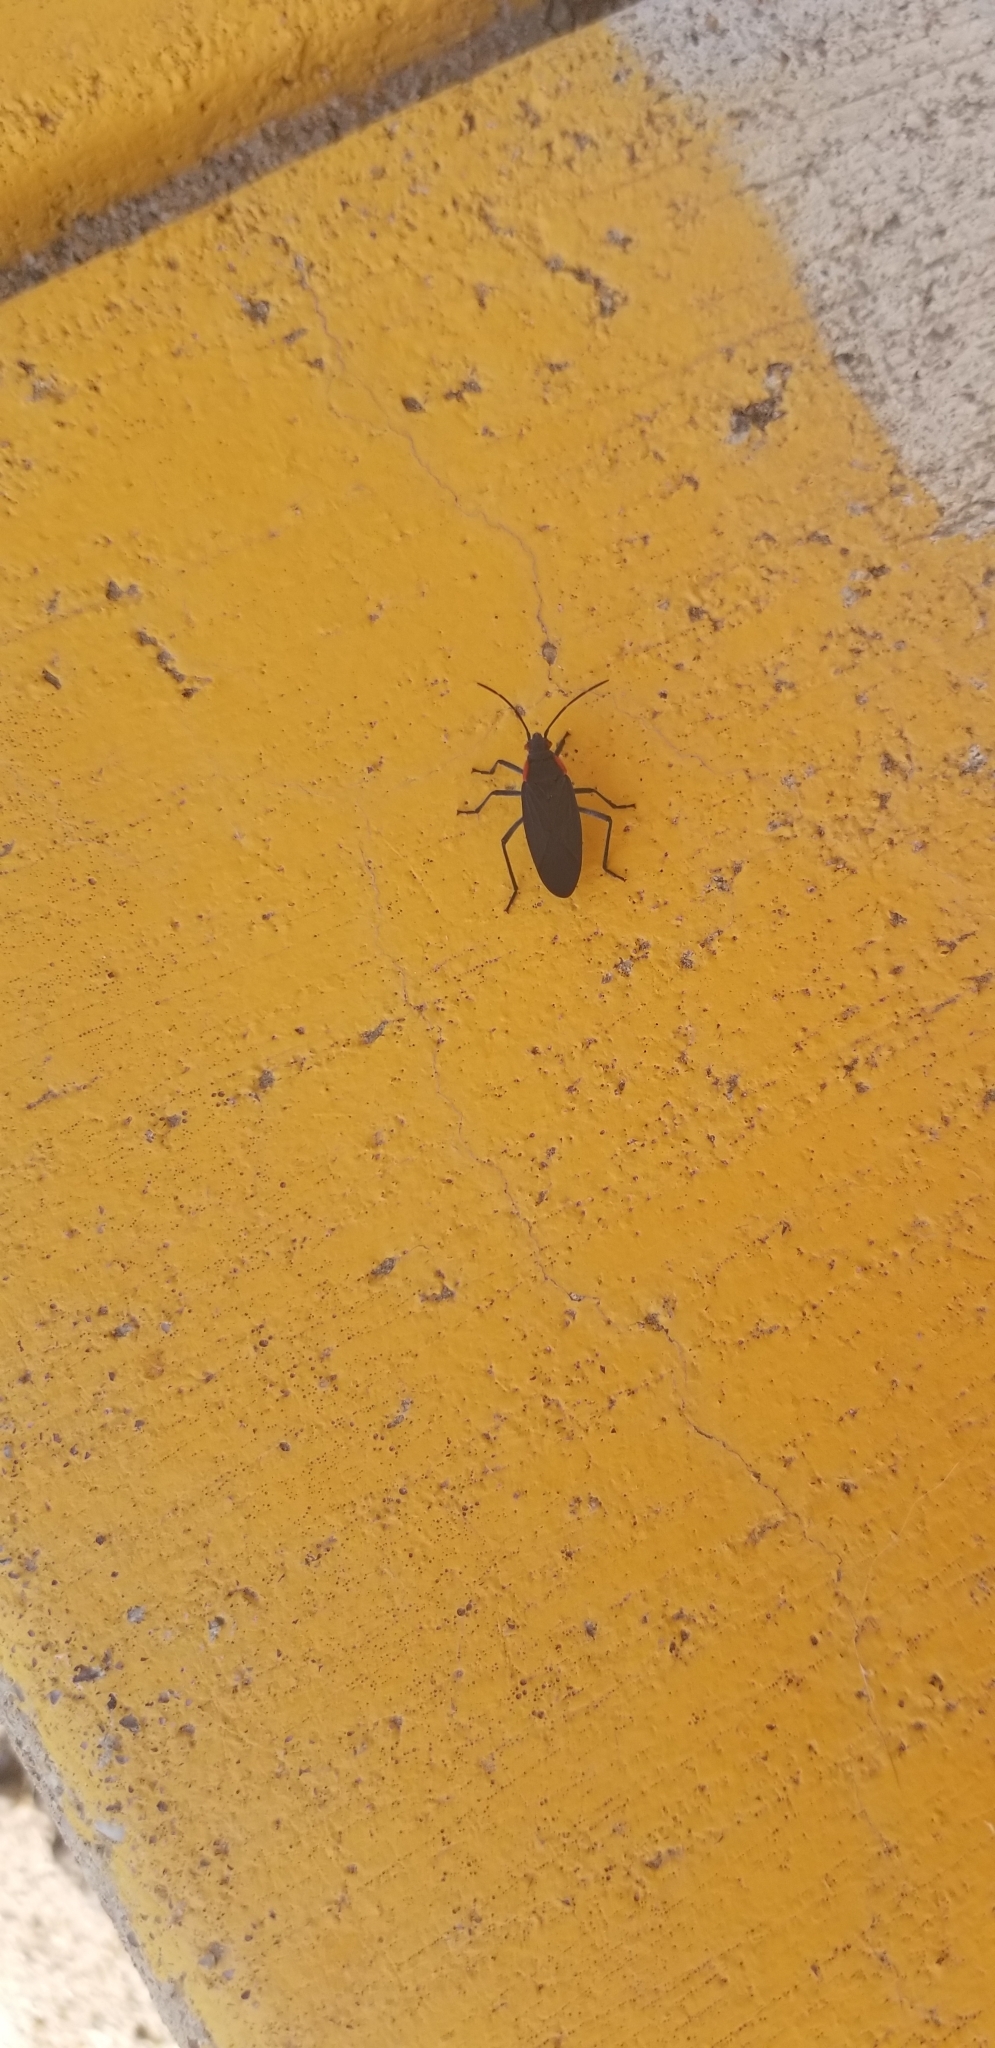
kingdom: Animalia
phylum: Arthropoda
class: Insecta
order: Hemiptera
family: Rhopalidae
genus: Jadera
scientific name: Jadera haematoloma
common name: Red-shouldered bug
